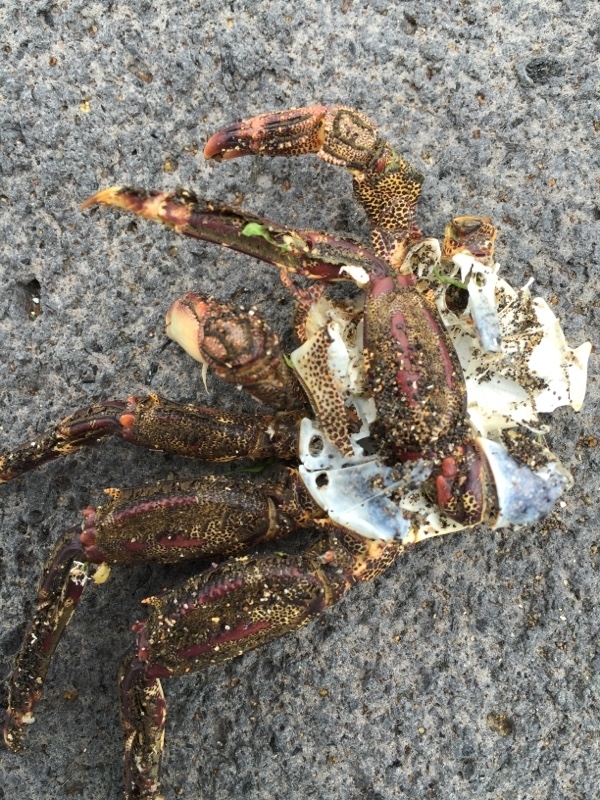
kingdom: Animalia
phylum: Arthropoda
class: Malacostraca
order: Decapoda
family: Grapsidae
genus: Grapsus
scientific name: Grapsus adscensionis
